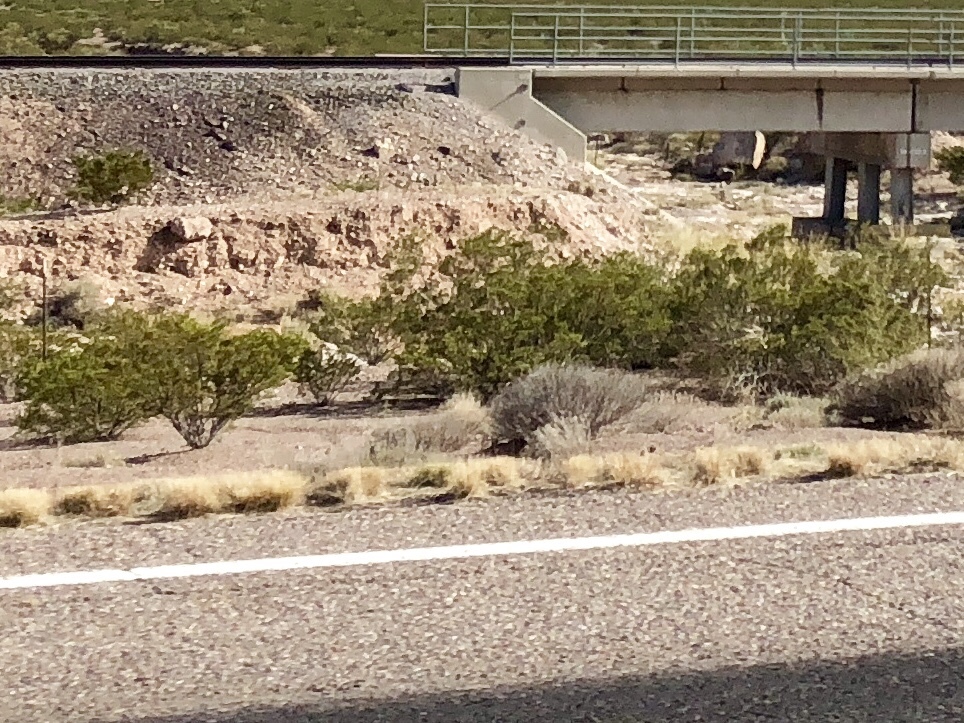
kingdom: Plantae
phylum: Tracheophyta
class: Magnoliopsida
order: Zygophyllales
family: Zygophyllaceae
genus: Larrea
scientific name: Larrea tridentata
